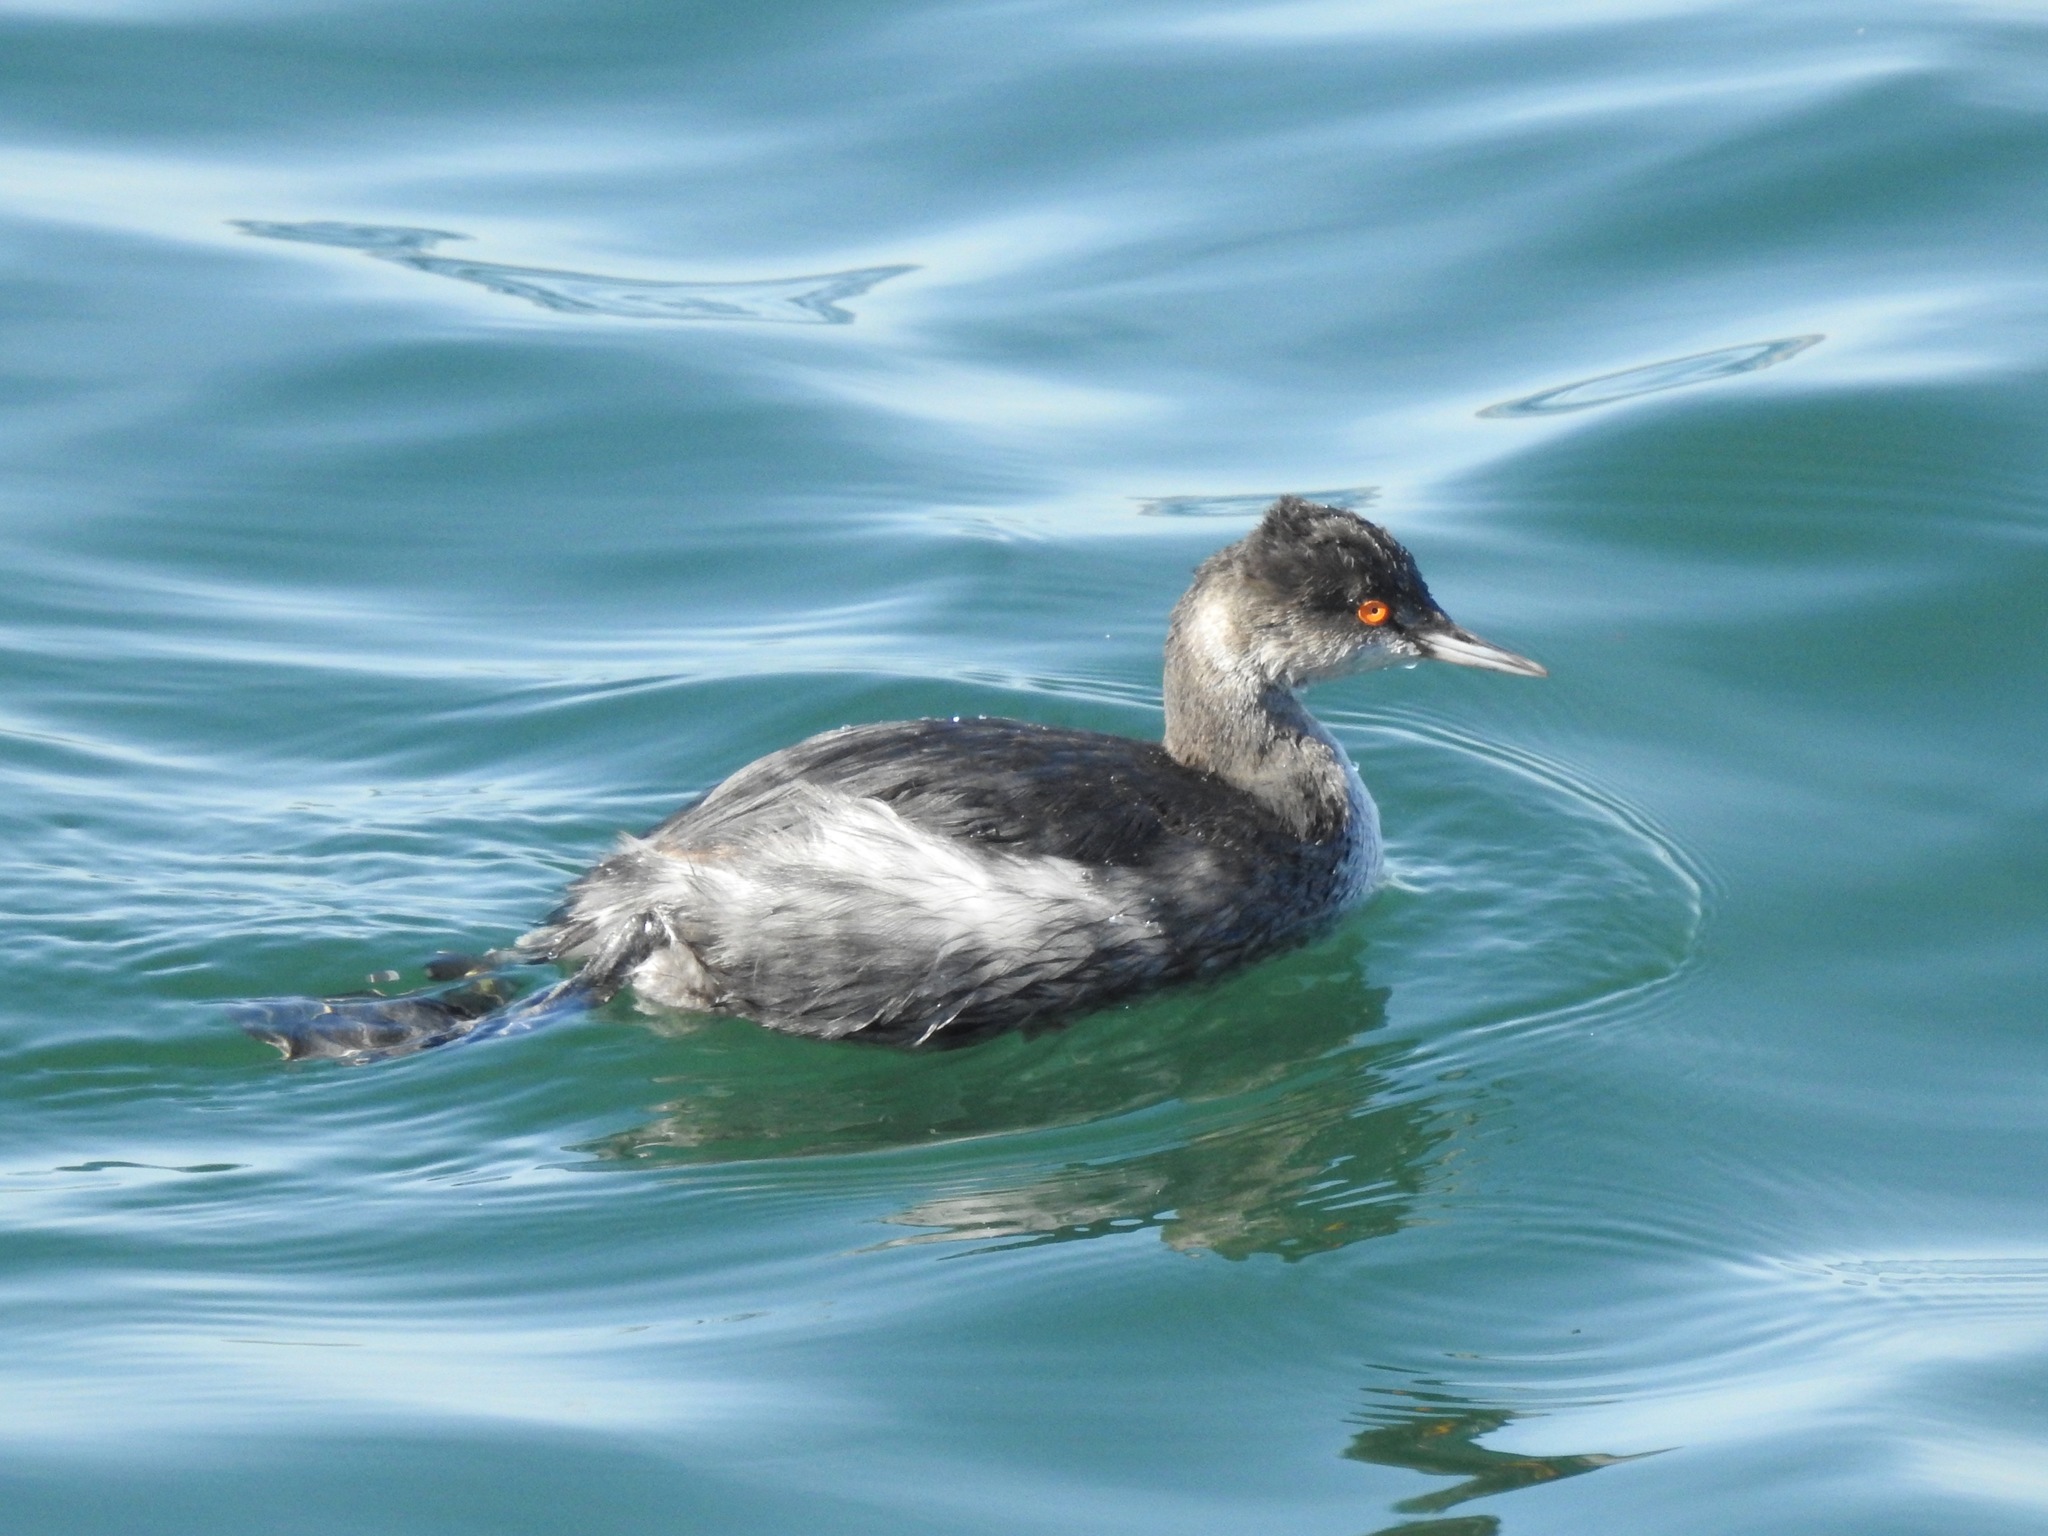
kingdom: Animalia
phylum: Chordata
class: Aves
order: Podicipediformes
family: Podicipedidae
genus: Podiceps
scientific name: Podiceps nigricollis
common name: Black-necked grebe
